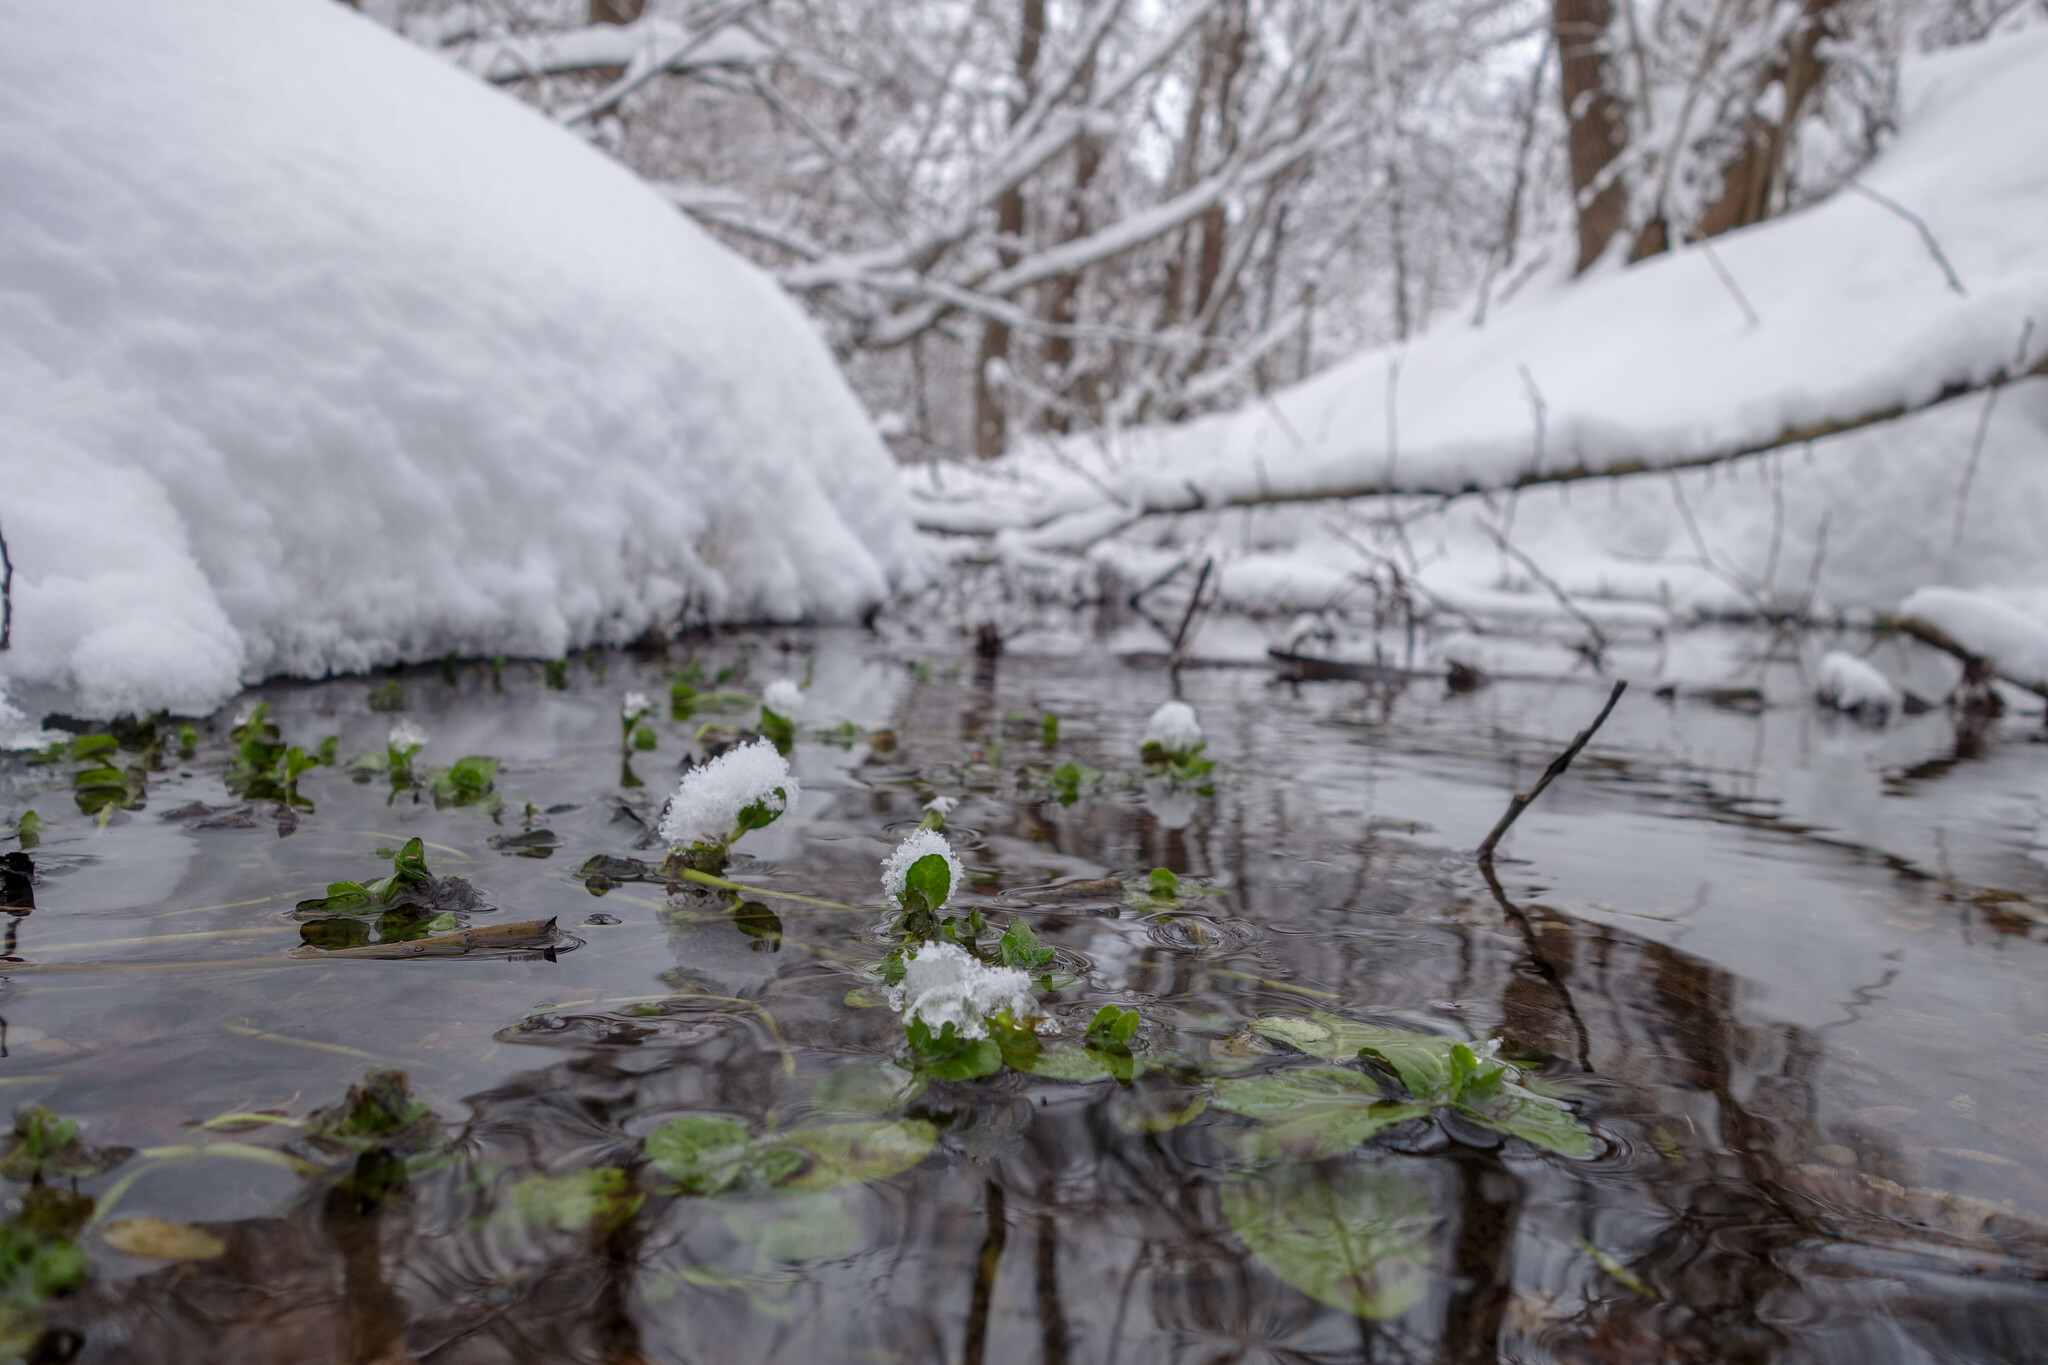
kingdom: Plantae
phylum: Tracheophyta
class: Magnoliopsida
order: Lamiales
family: Plantaginaceae
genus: Veronica
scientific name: Veronica beccabunga
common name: Brooklime
